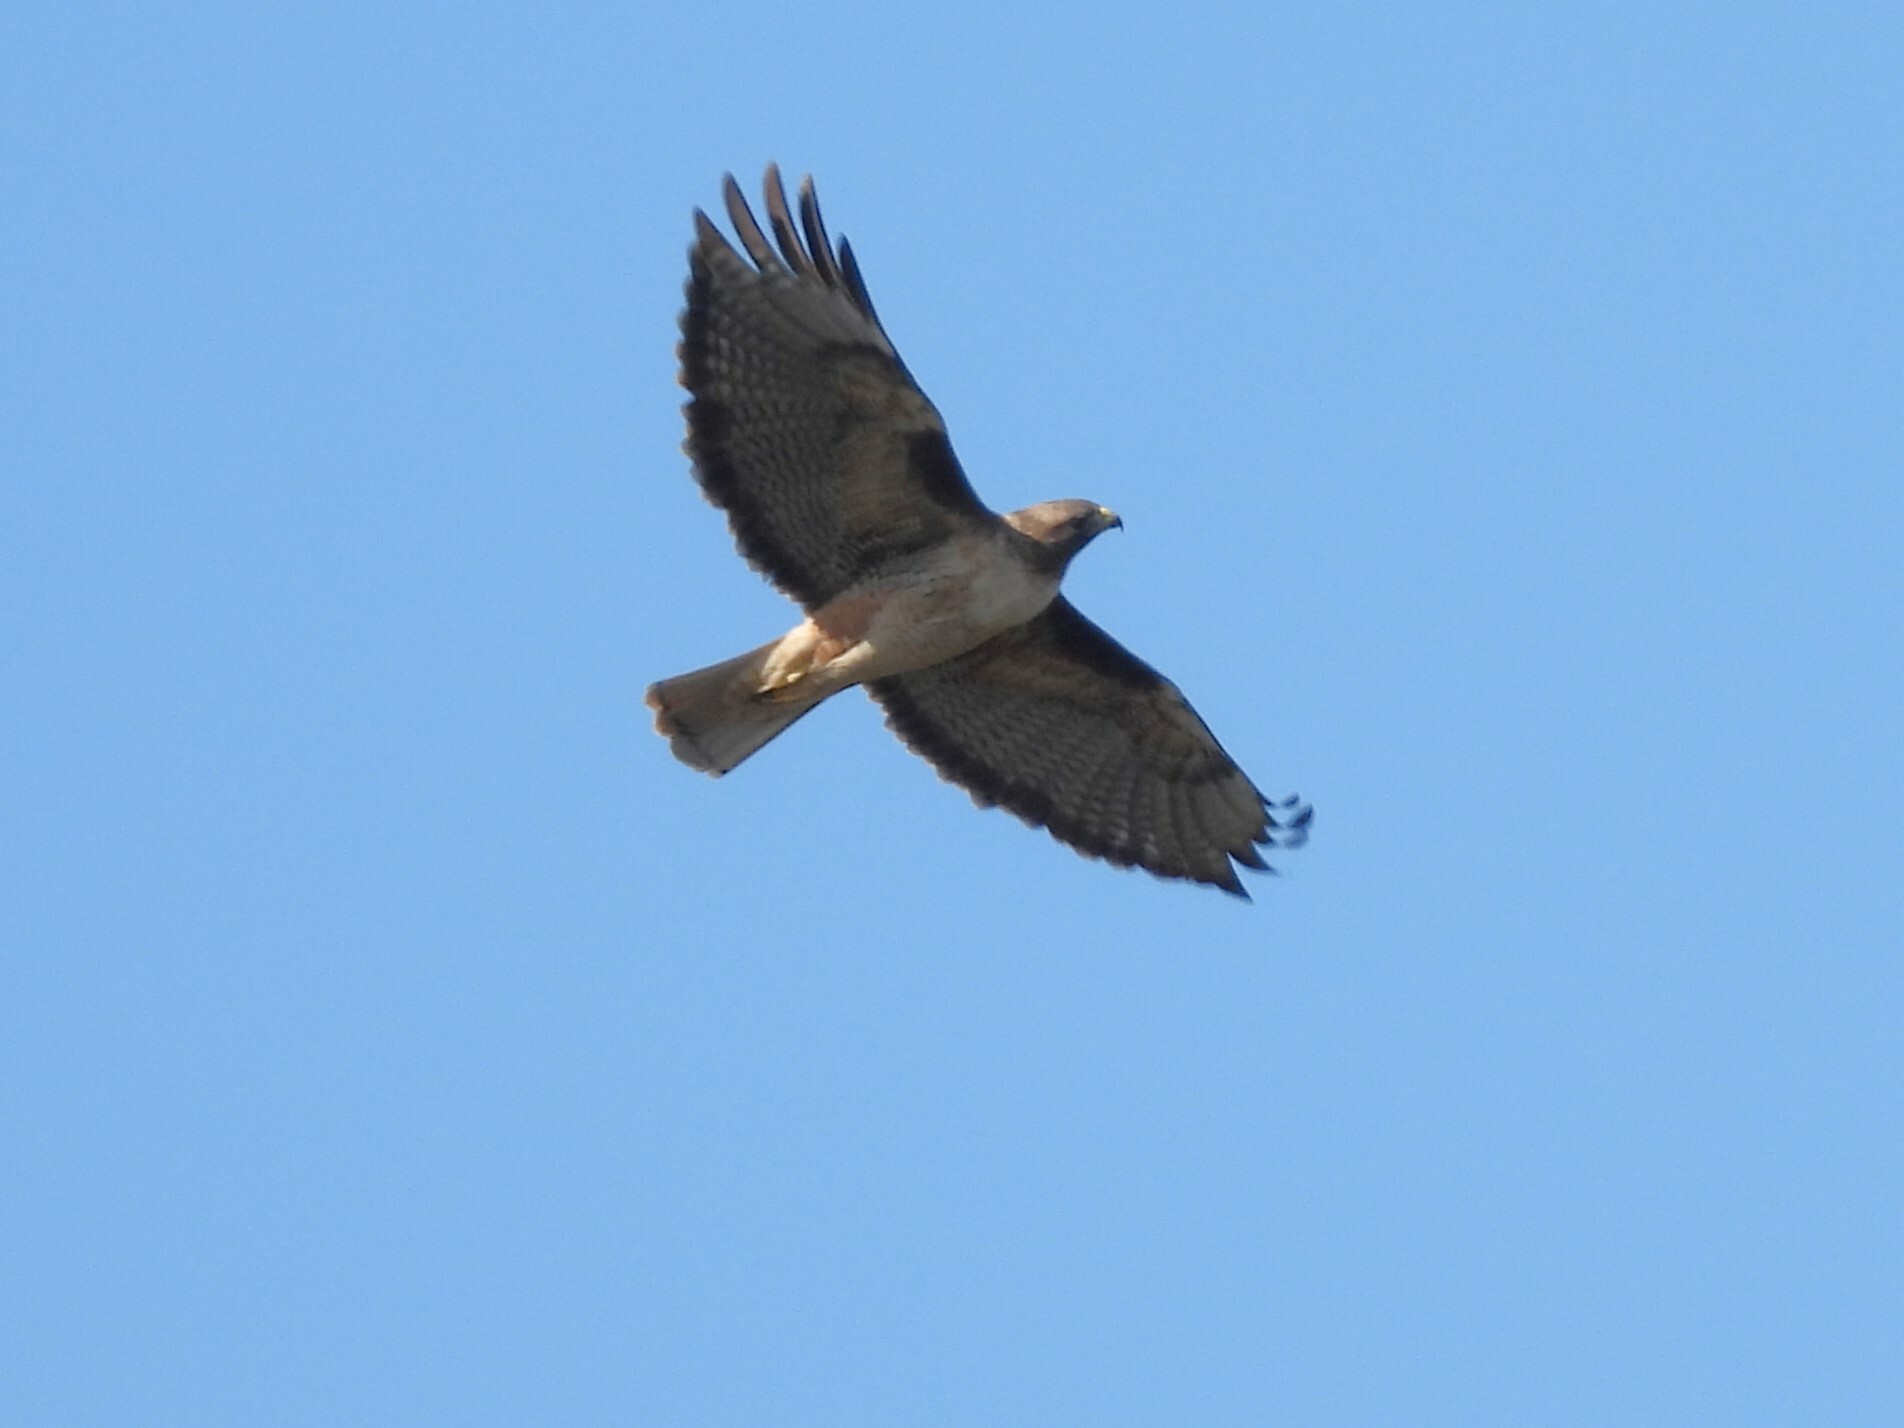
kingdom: Animalia
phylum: Chordata
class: Aves
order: Accipitriformes
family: Accipitridae
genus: Buteo
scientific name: Buteo jamaicensis
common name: Red-tailed hawk
